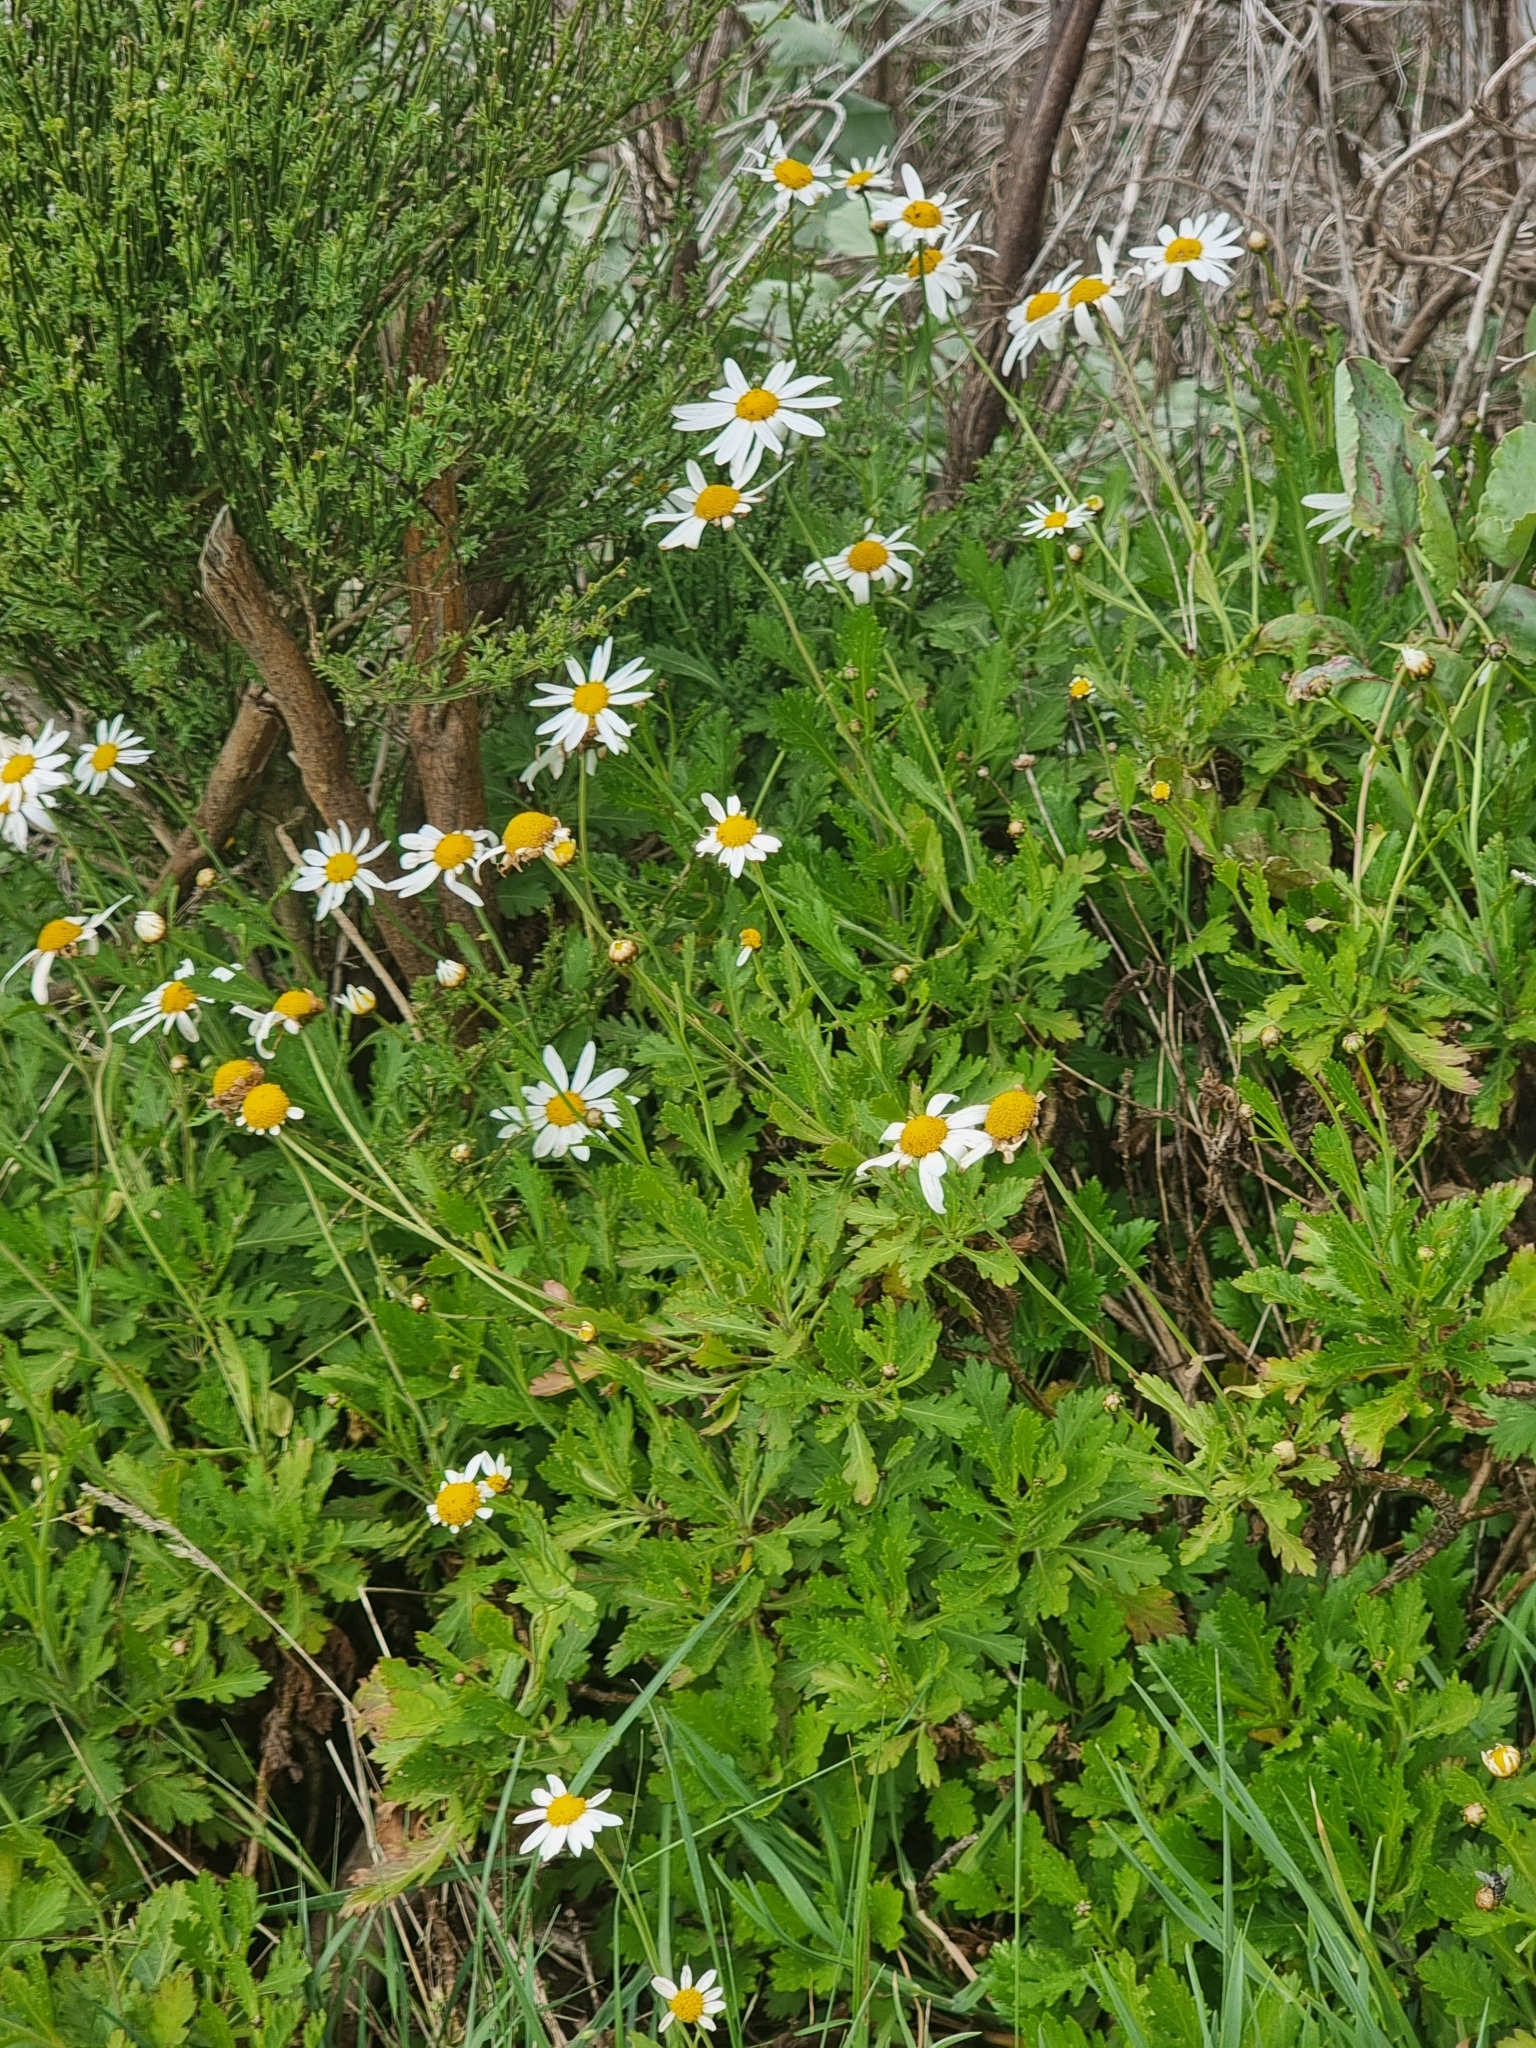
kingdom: Plantae
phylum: Tracheophyta
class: Magnoliopsida
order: Asterales
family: Asteraceae
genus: Argyranthemum
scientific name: Argyranthemum pinnatifidum
